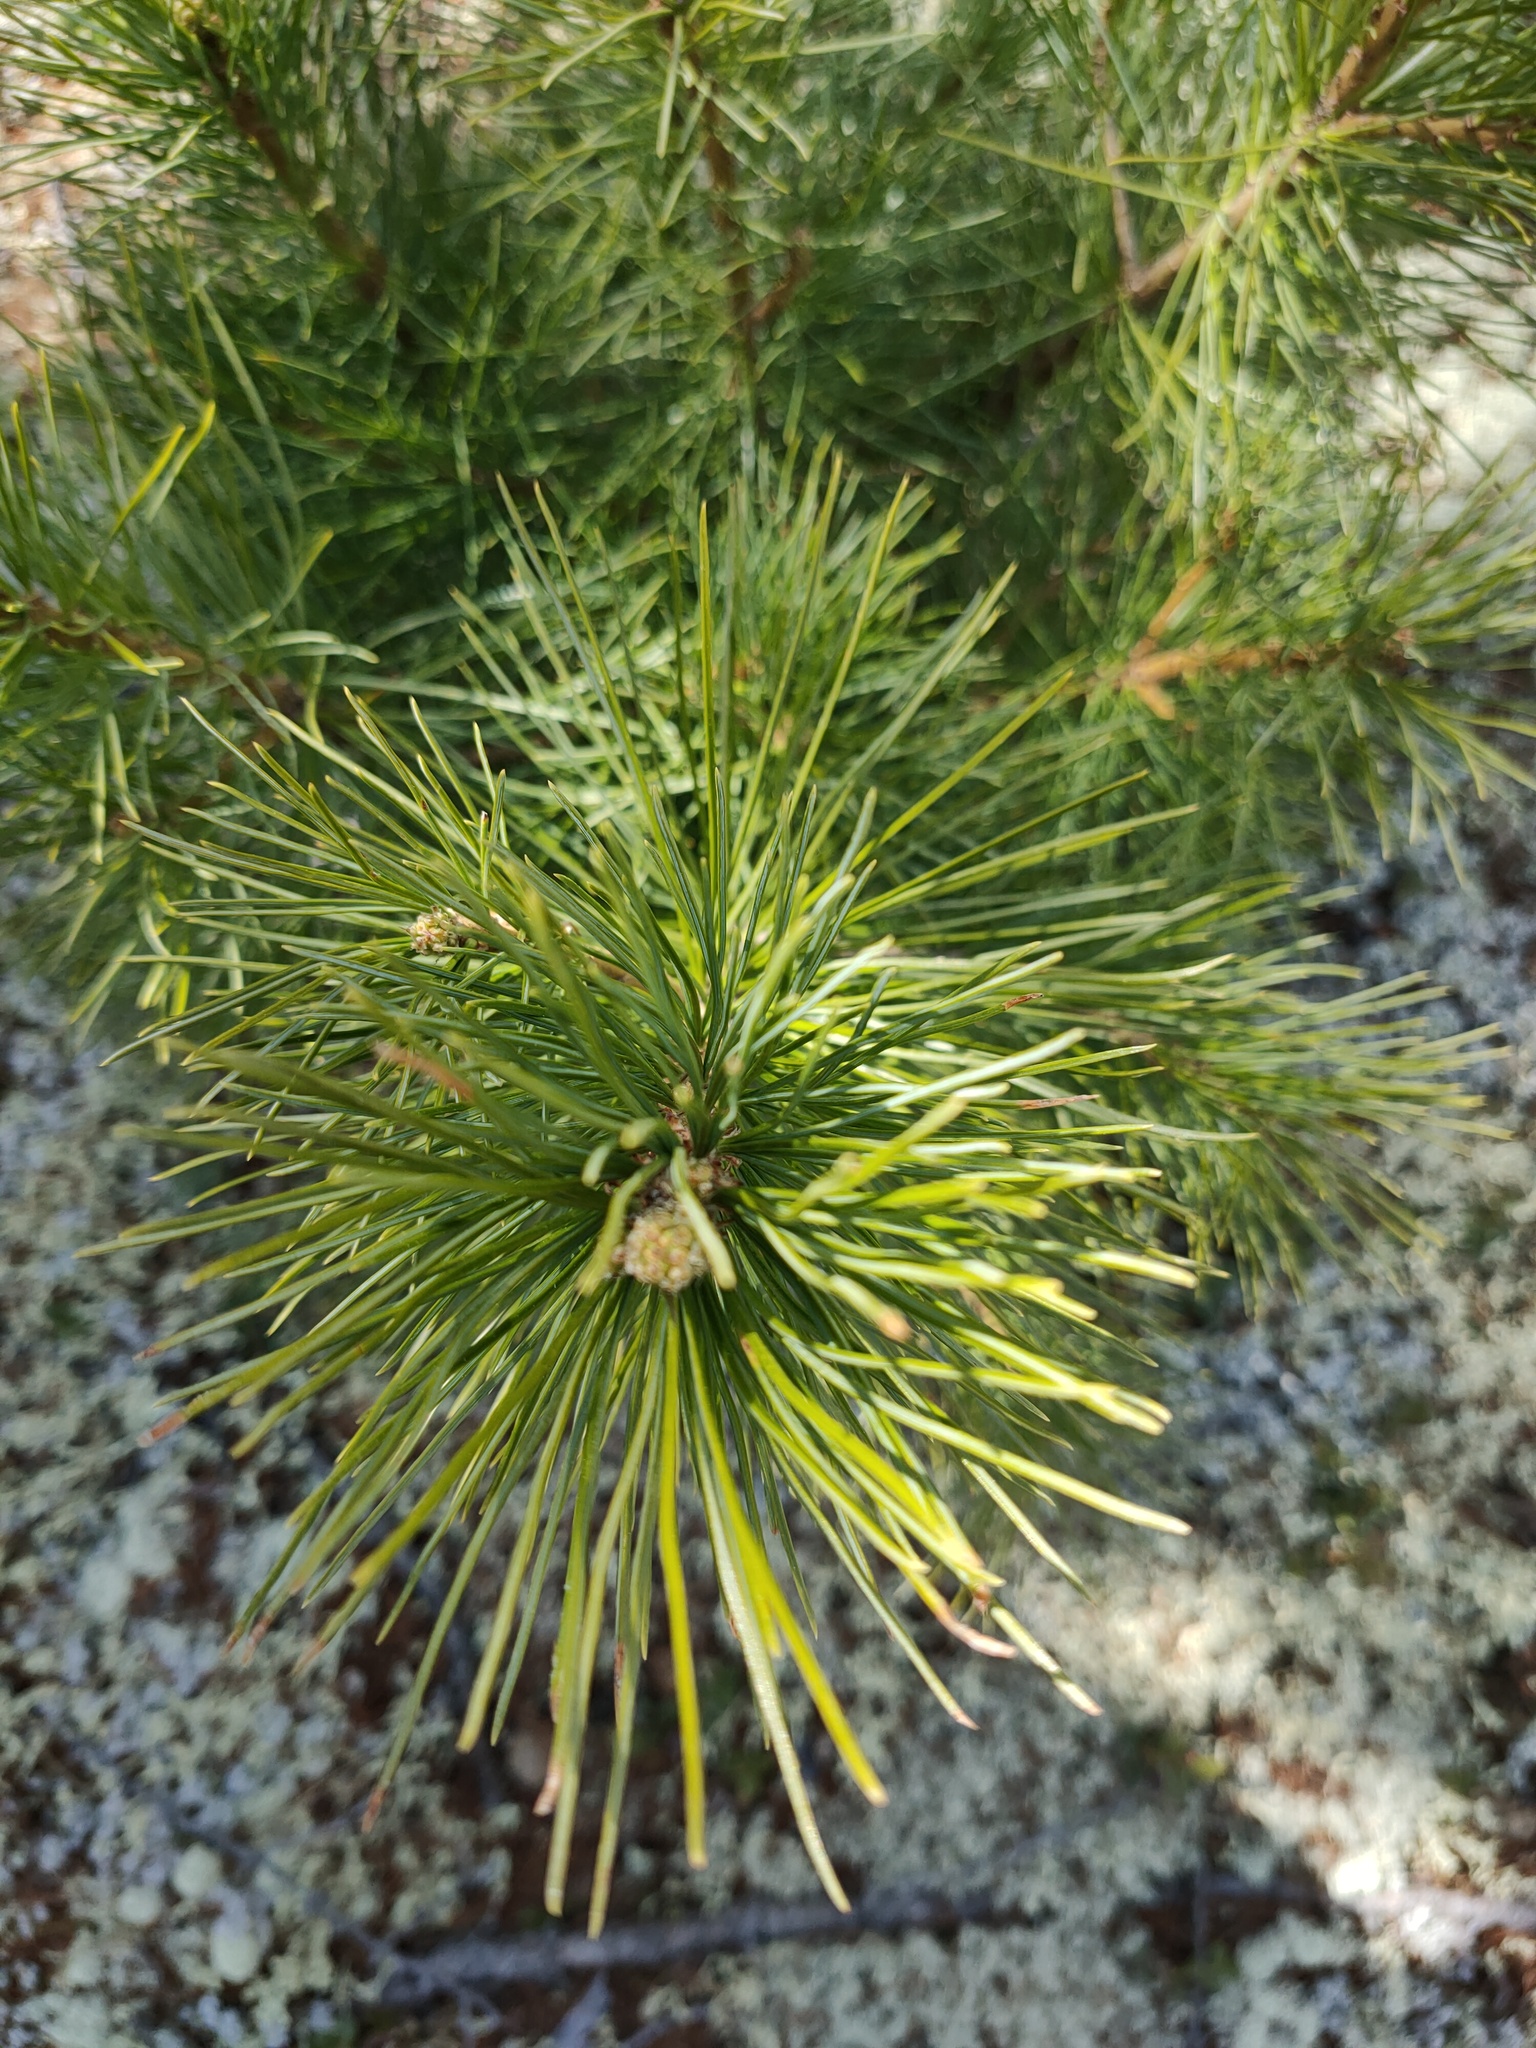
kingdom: Plantae
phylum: Tracheophyta
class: Pinopsida
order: Pinales
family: Pinaceae
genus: Pinus
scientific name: Pinus sibirica
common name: Siberian pine
